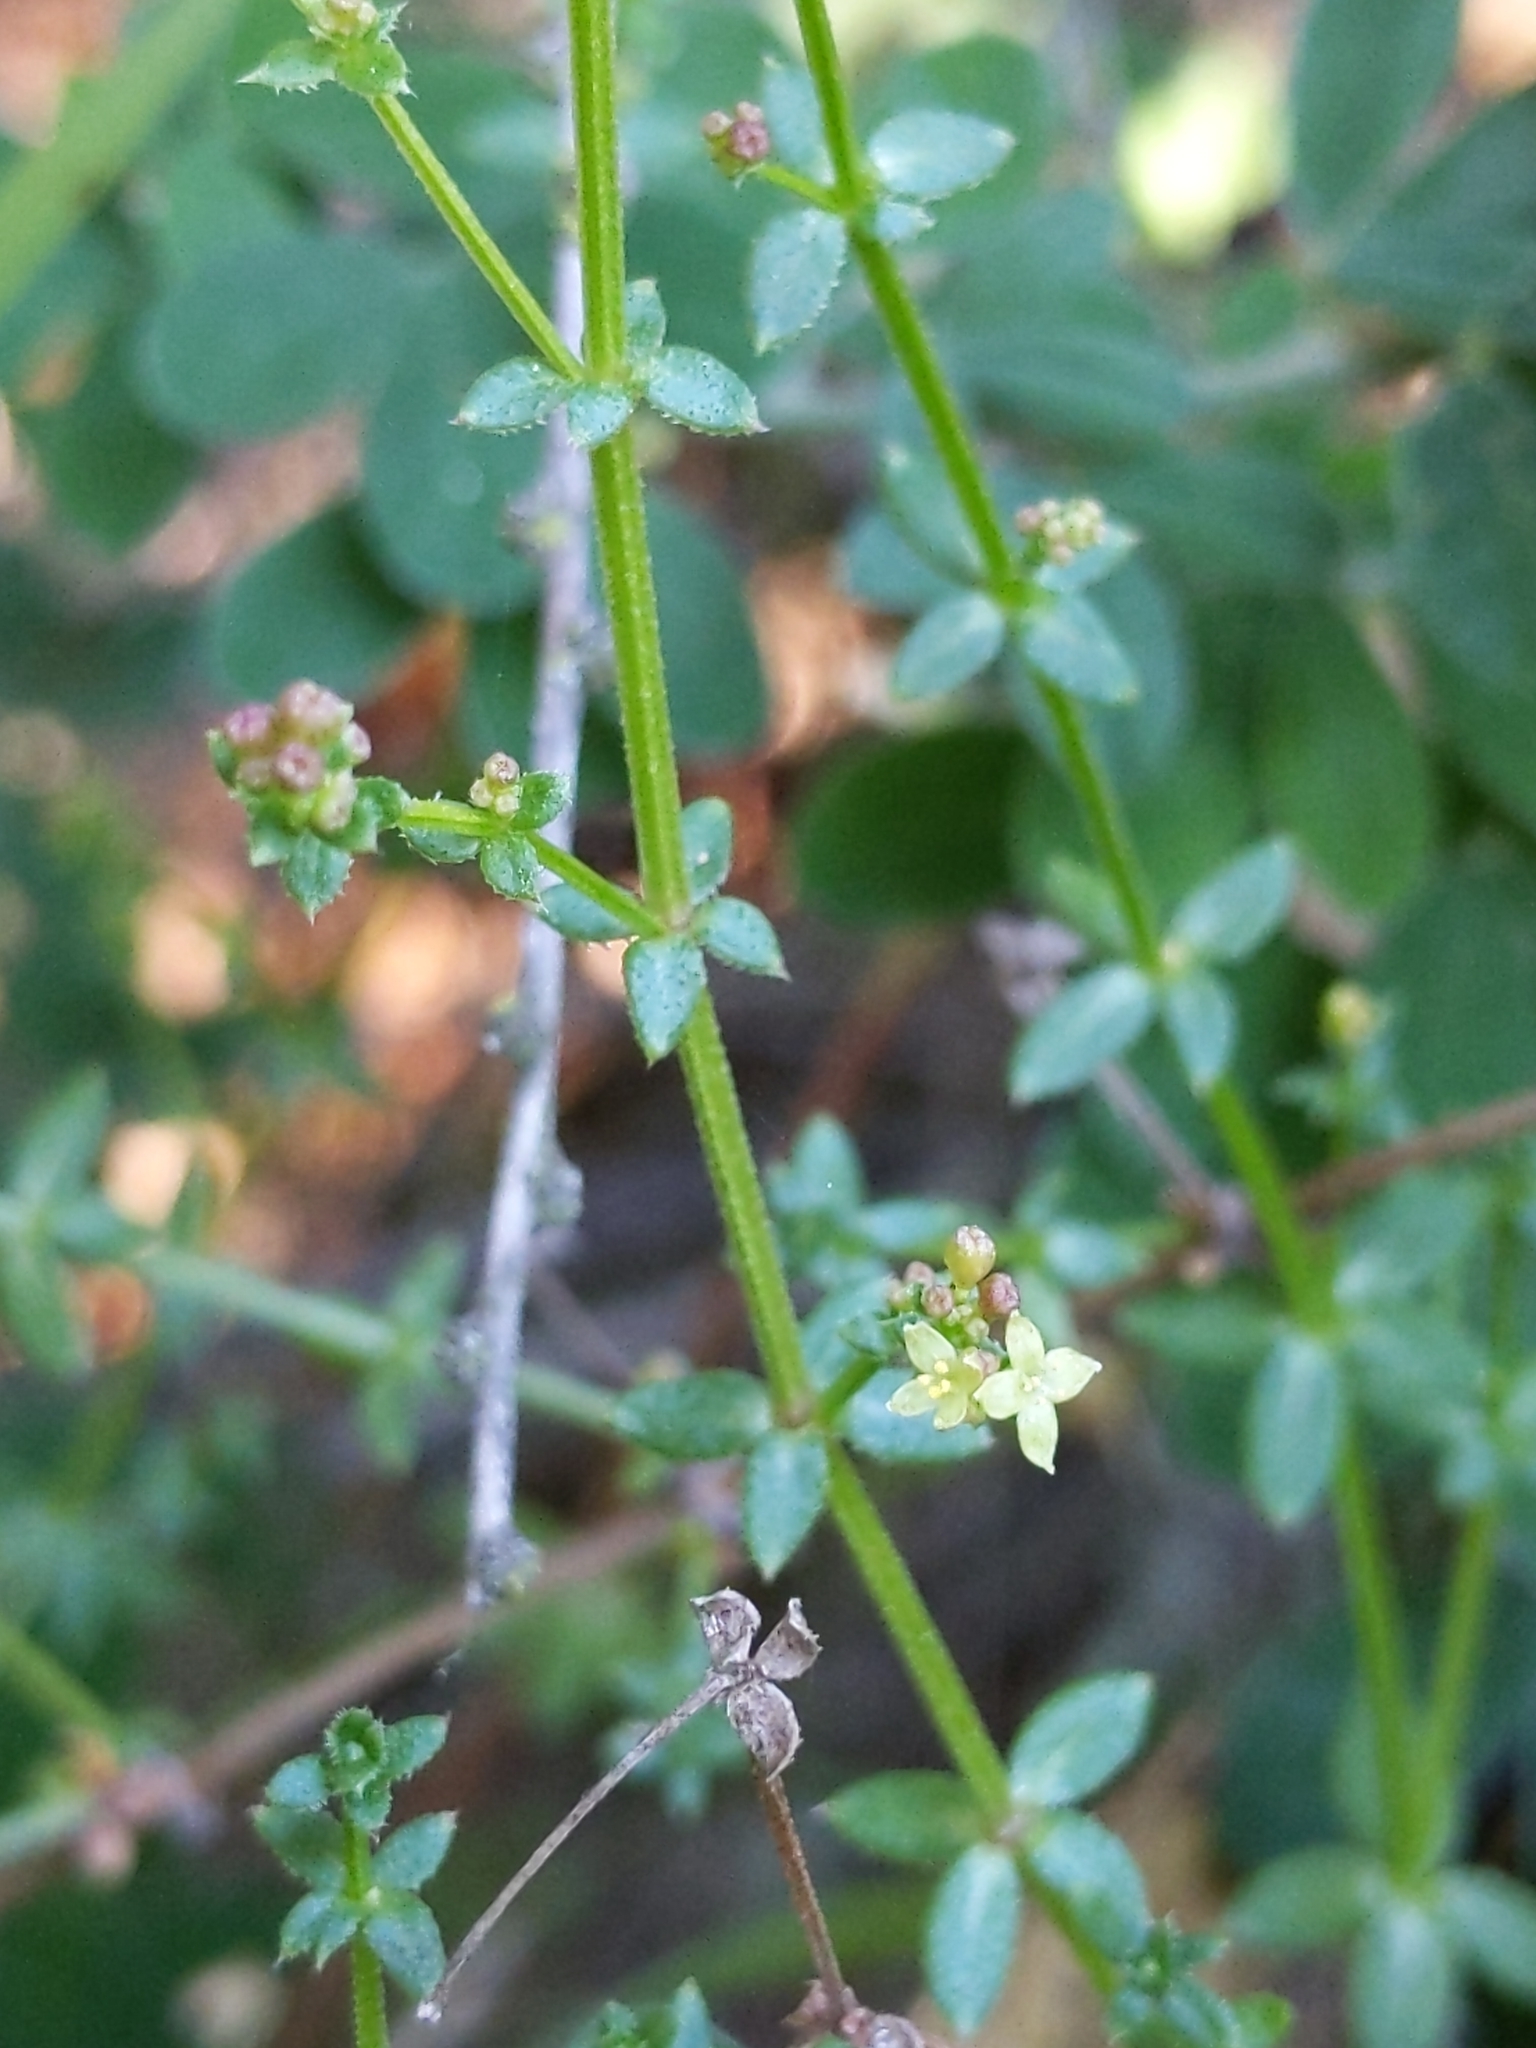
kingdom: Plantae
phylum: Tracheophyta
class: Magnoliopsida
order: Gentianales
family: Rubiaceae
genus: Galium
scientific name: Galium porrigens
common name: Climbing bedstraw
